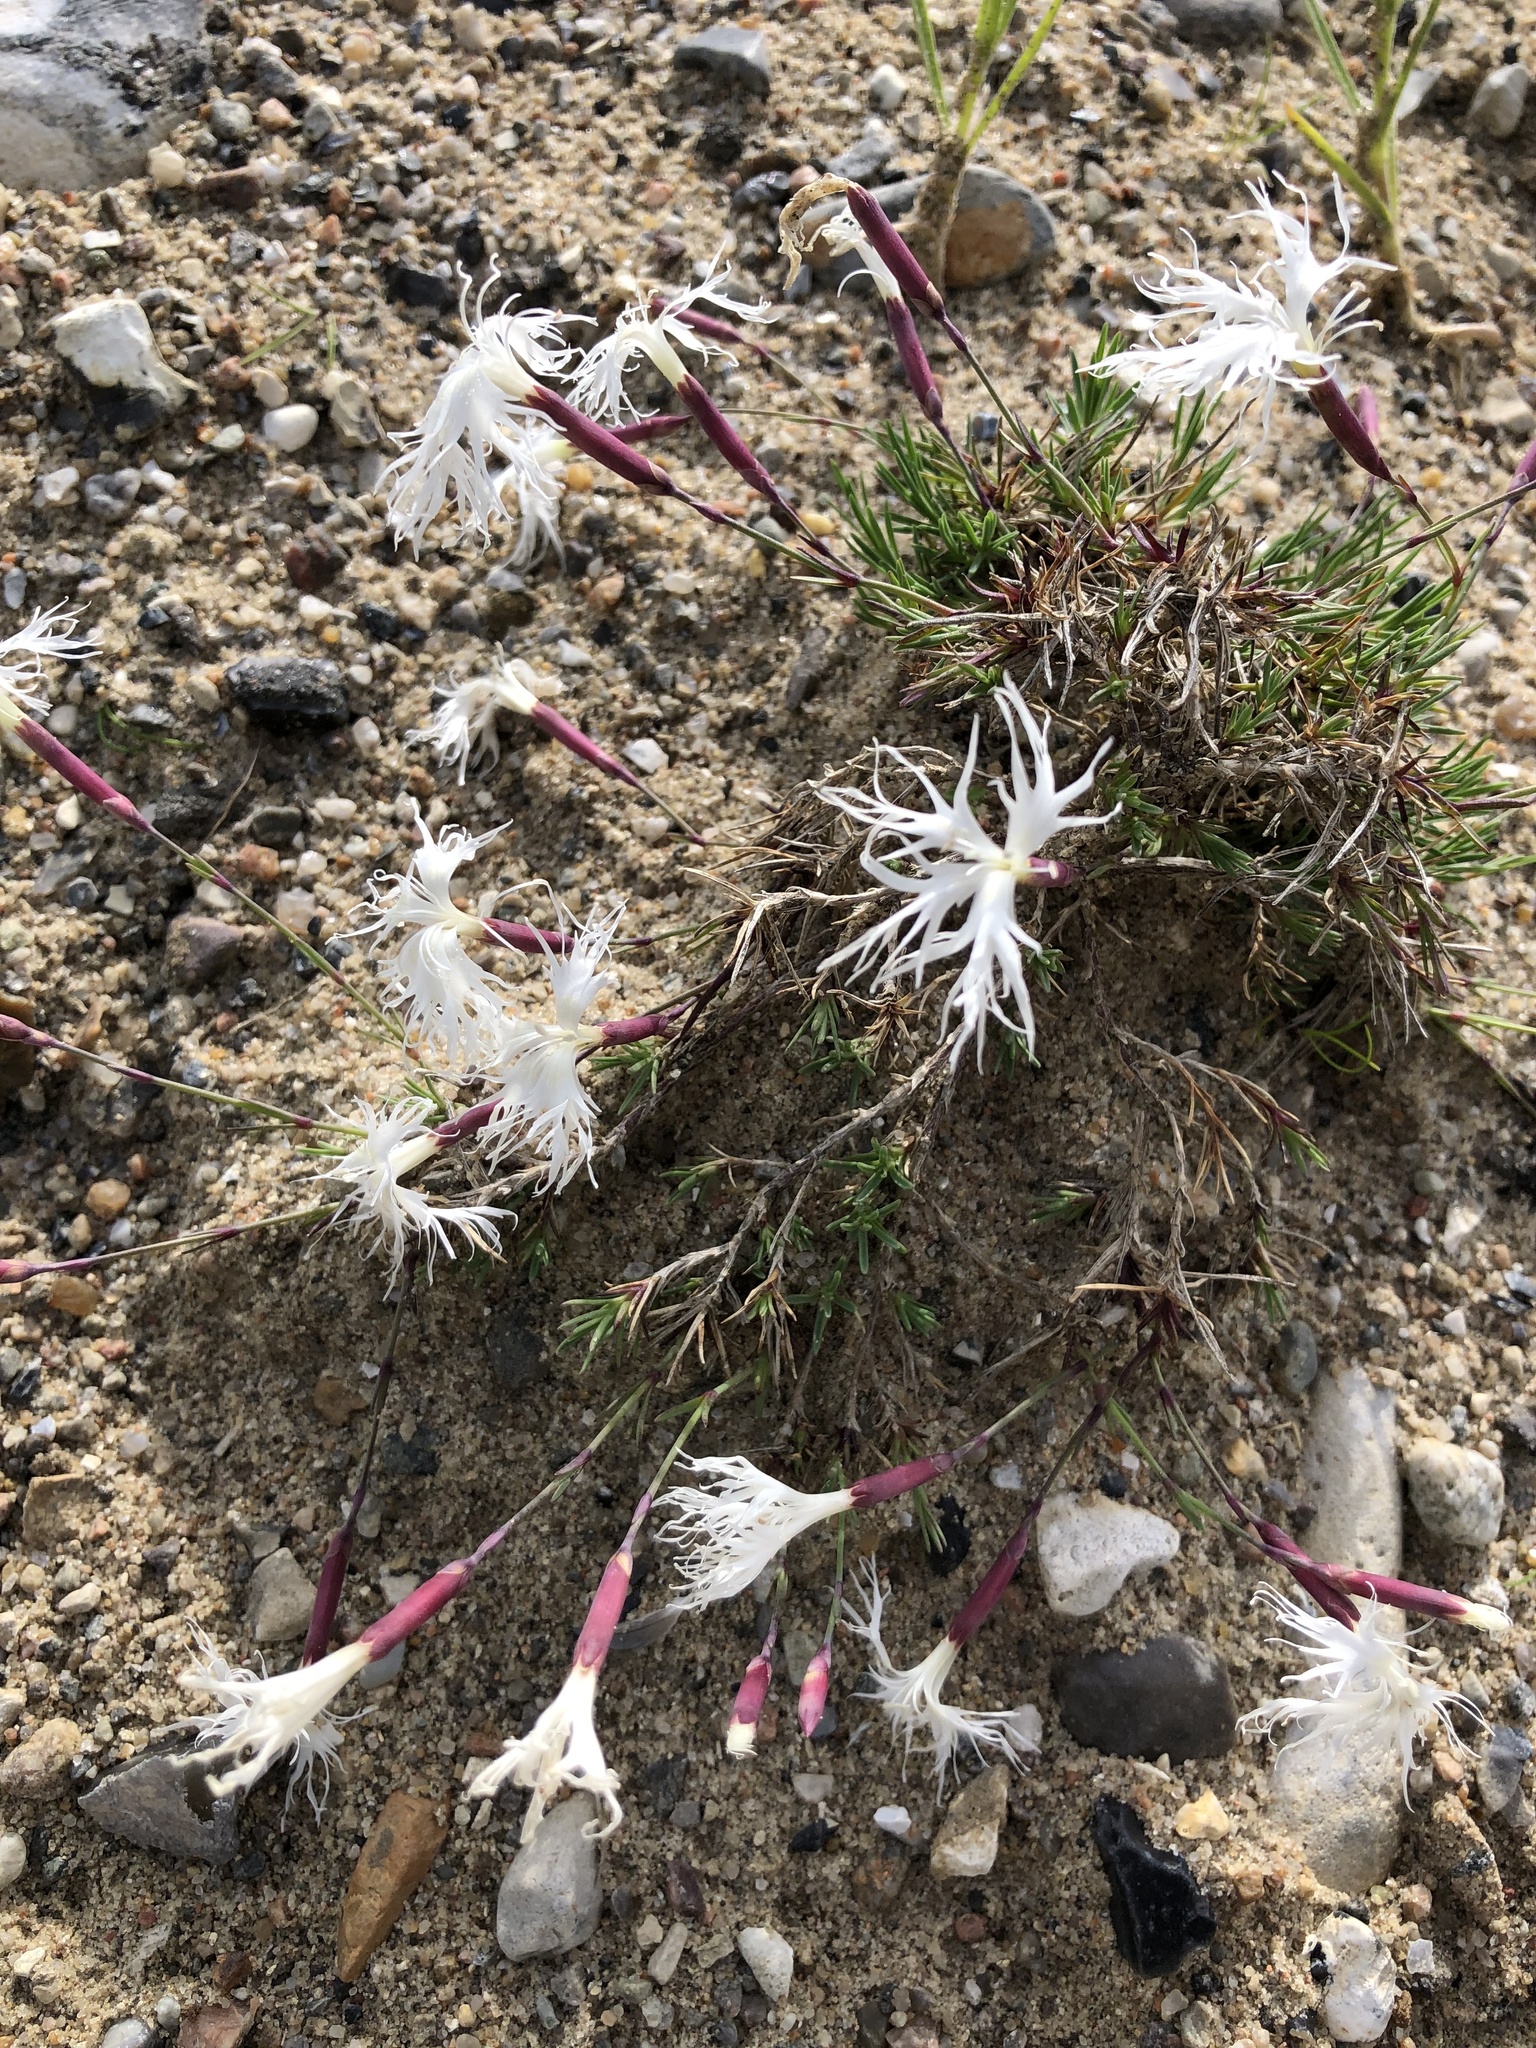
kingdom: Plantae
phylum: Tracheophyta
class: Magnoliopsida
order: Caryophyllales
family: Caryophyllaceae
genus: Dianthus
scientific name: Dianthus arenarius
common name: Stone pink
